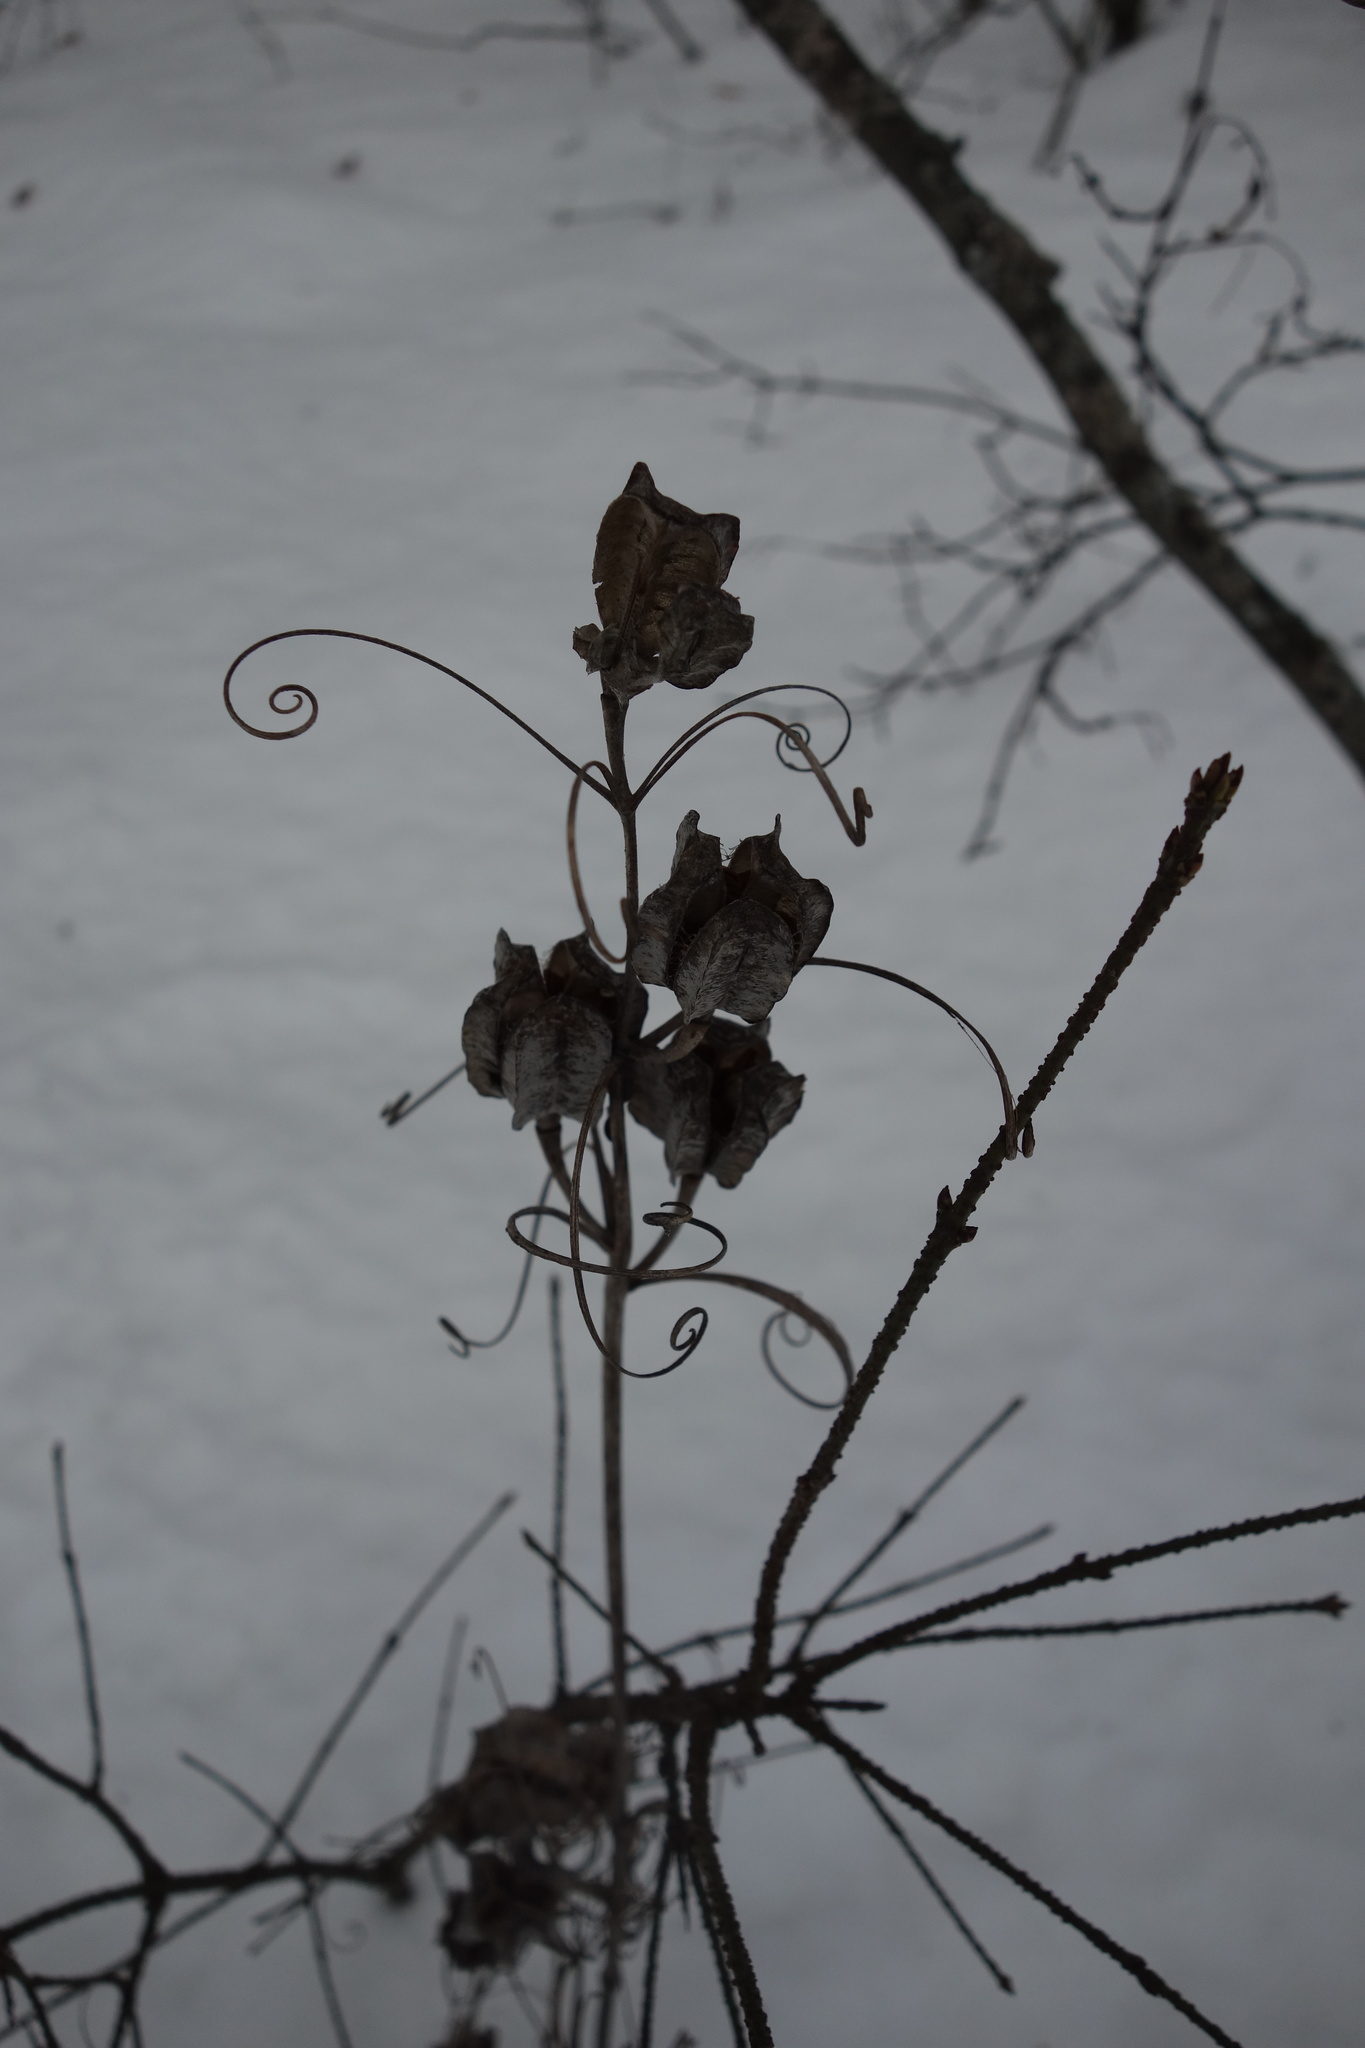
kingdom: Plantae
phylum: Tracheophyta
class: Liliopsida
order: Liliales
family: Liliaceae
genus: Fritillaria
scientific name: Fritillaria ruthenica
